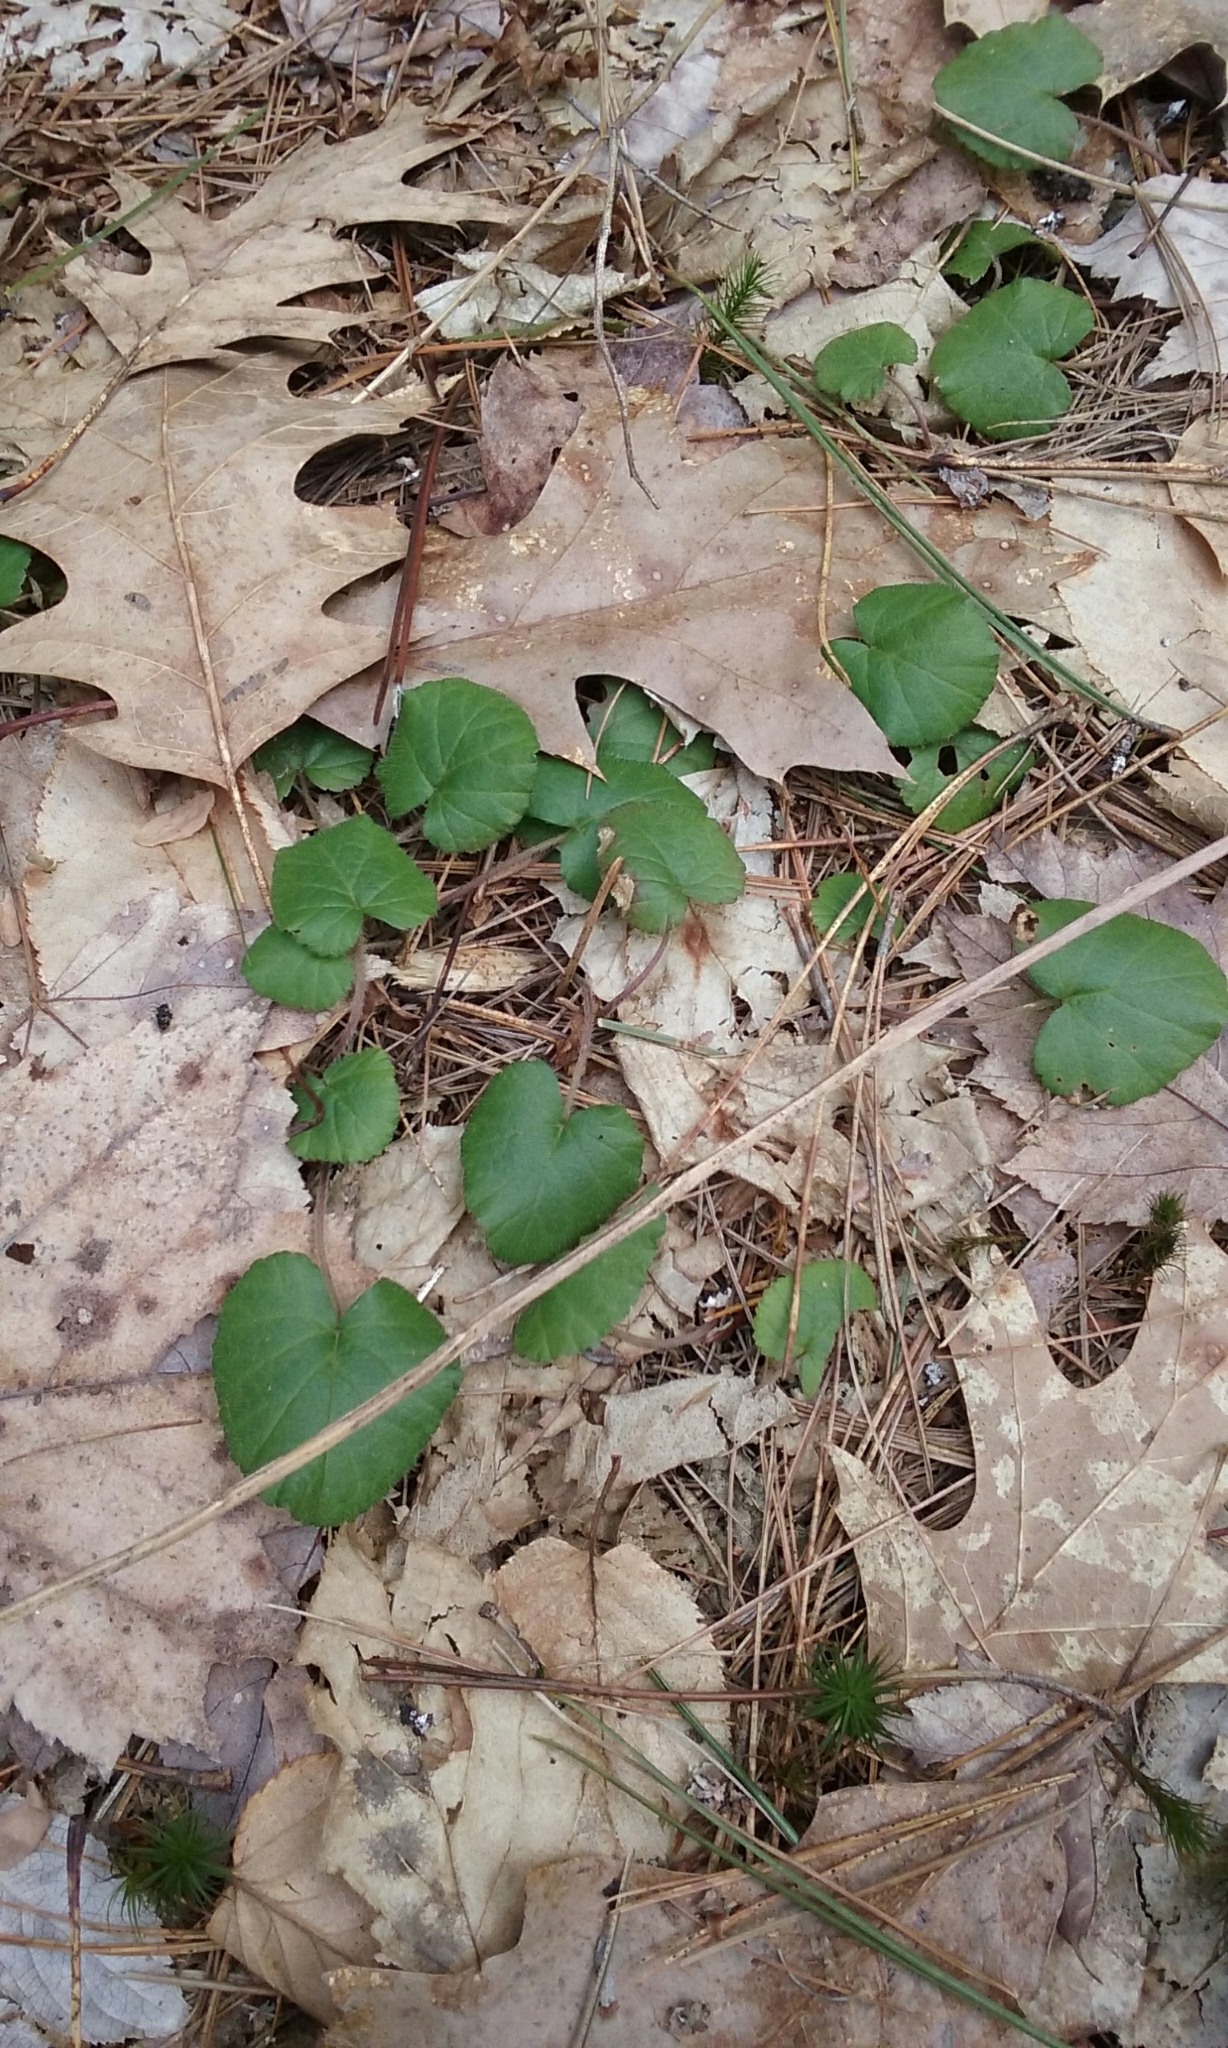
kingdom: Plantae
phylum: Tracheophyta
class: Magnoliopsida
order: Rosales
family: Rosaceae
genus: Dalibarda
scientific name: Dalibarda repens
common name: Dewdrop
